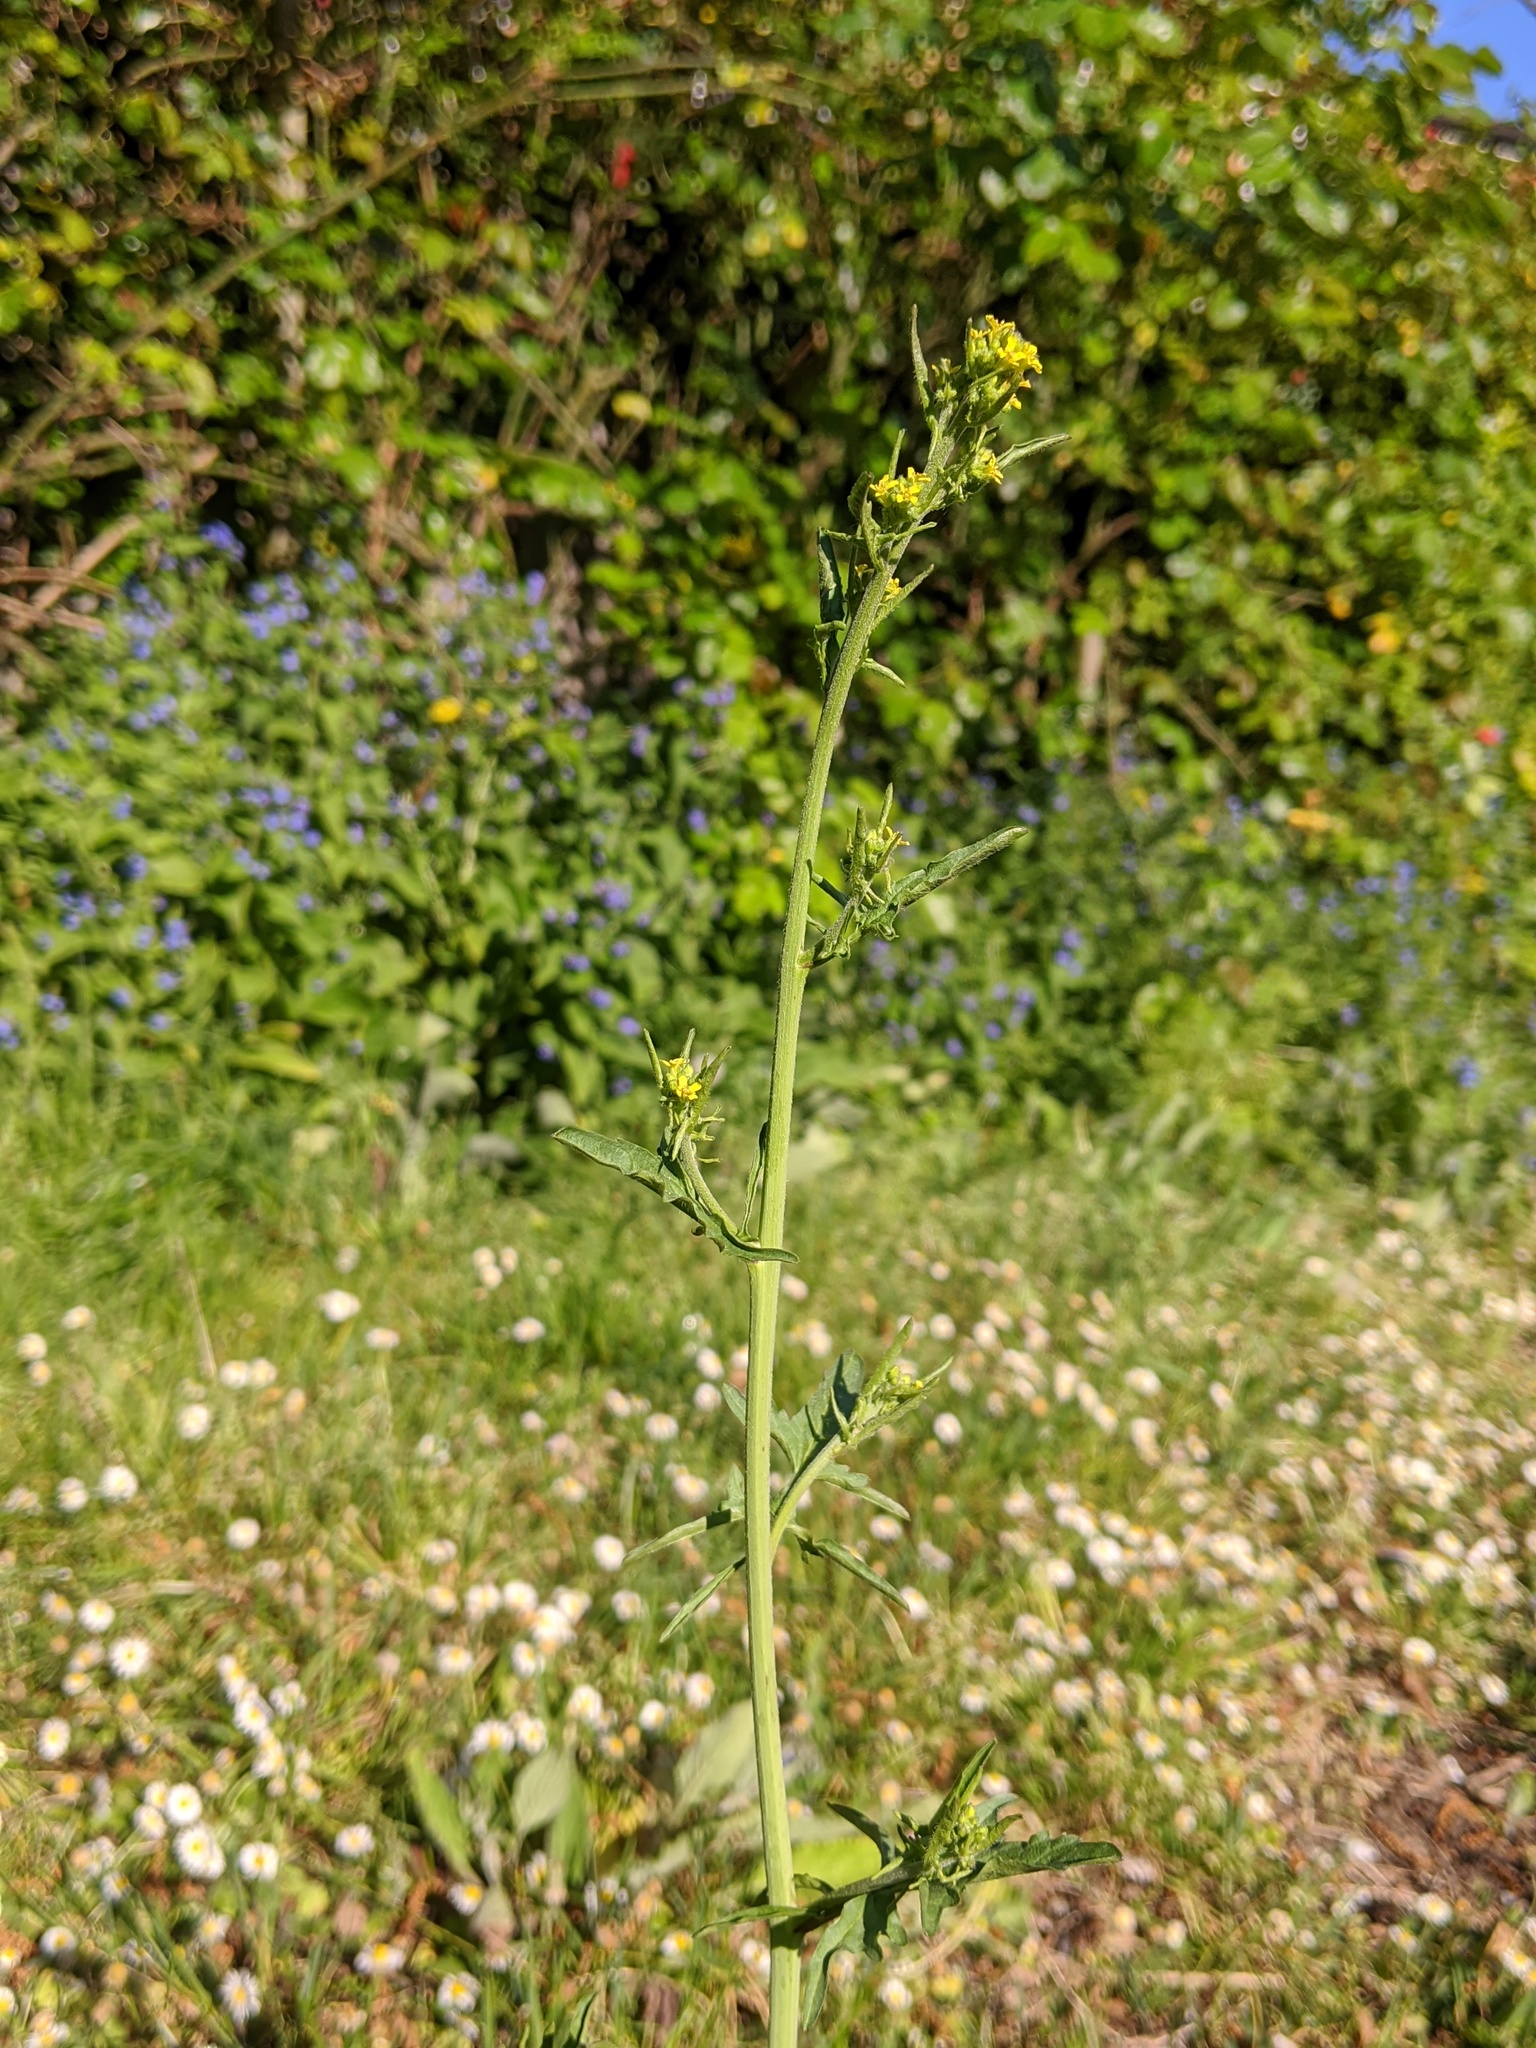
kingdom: Plantae
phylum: Tracheophyta
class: Magnoliopsida
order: Brassicales
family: Brassicaceae
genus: Sisymbrium
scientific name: Sisymbrium officinale
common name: Hedge mustard
